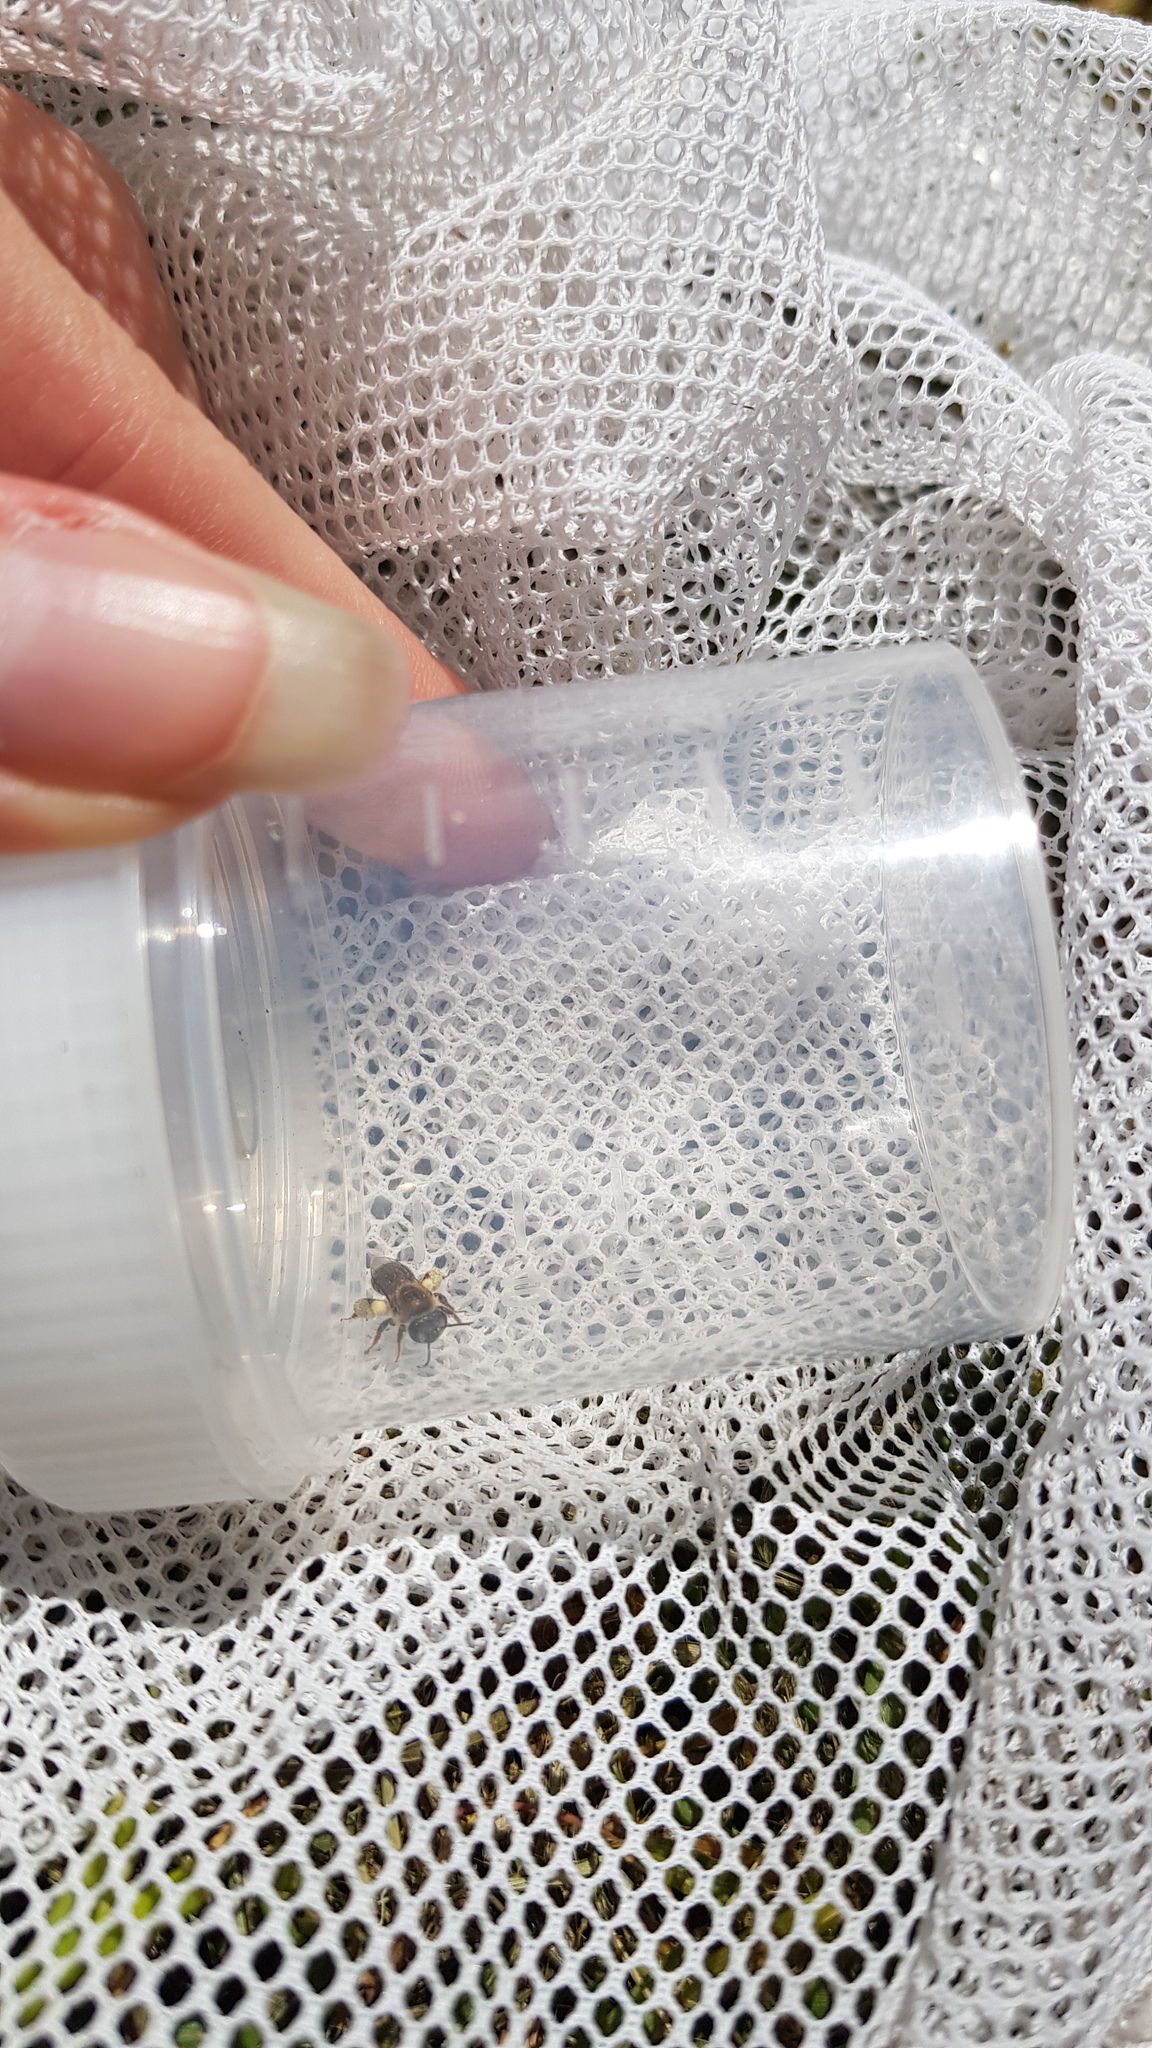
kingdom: Animalia
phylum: Arthropoda
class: Insecta
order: Hymenoptera
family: Colletidae
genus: Leioproctus
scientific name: Leioproctus amabilis
